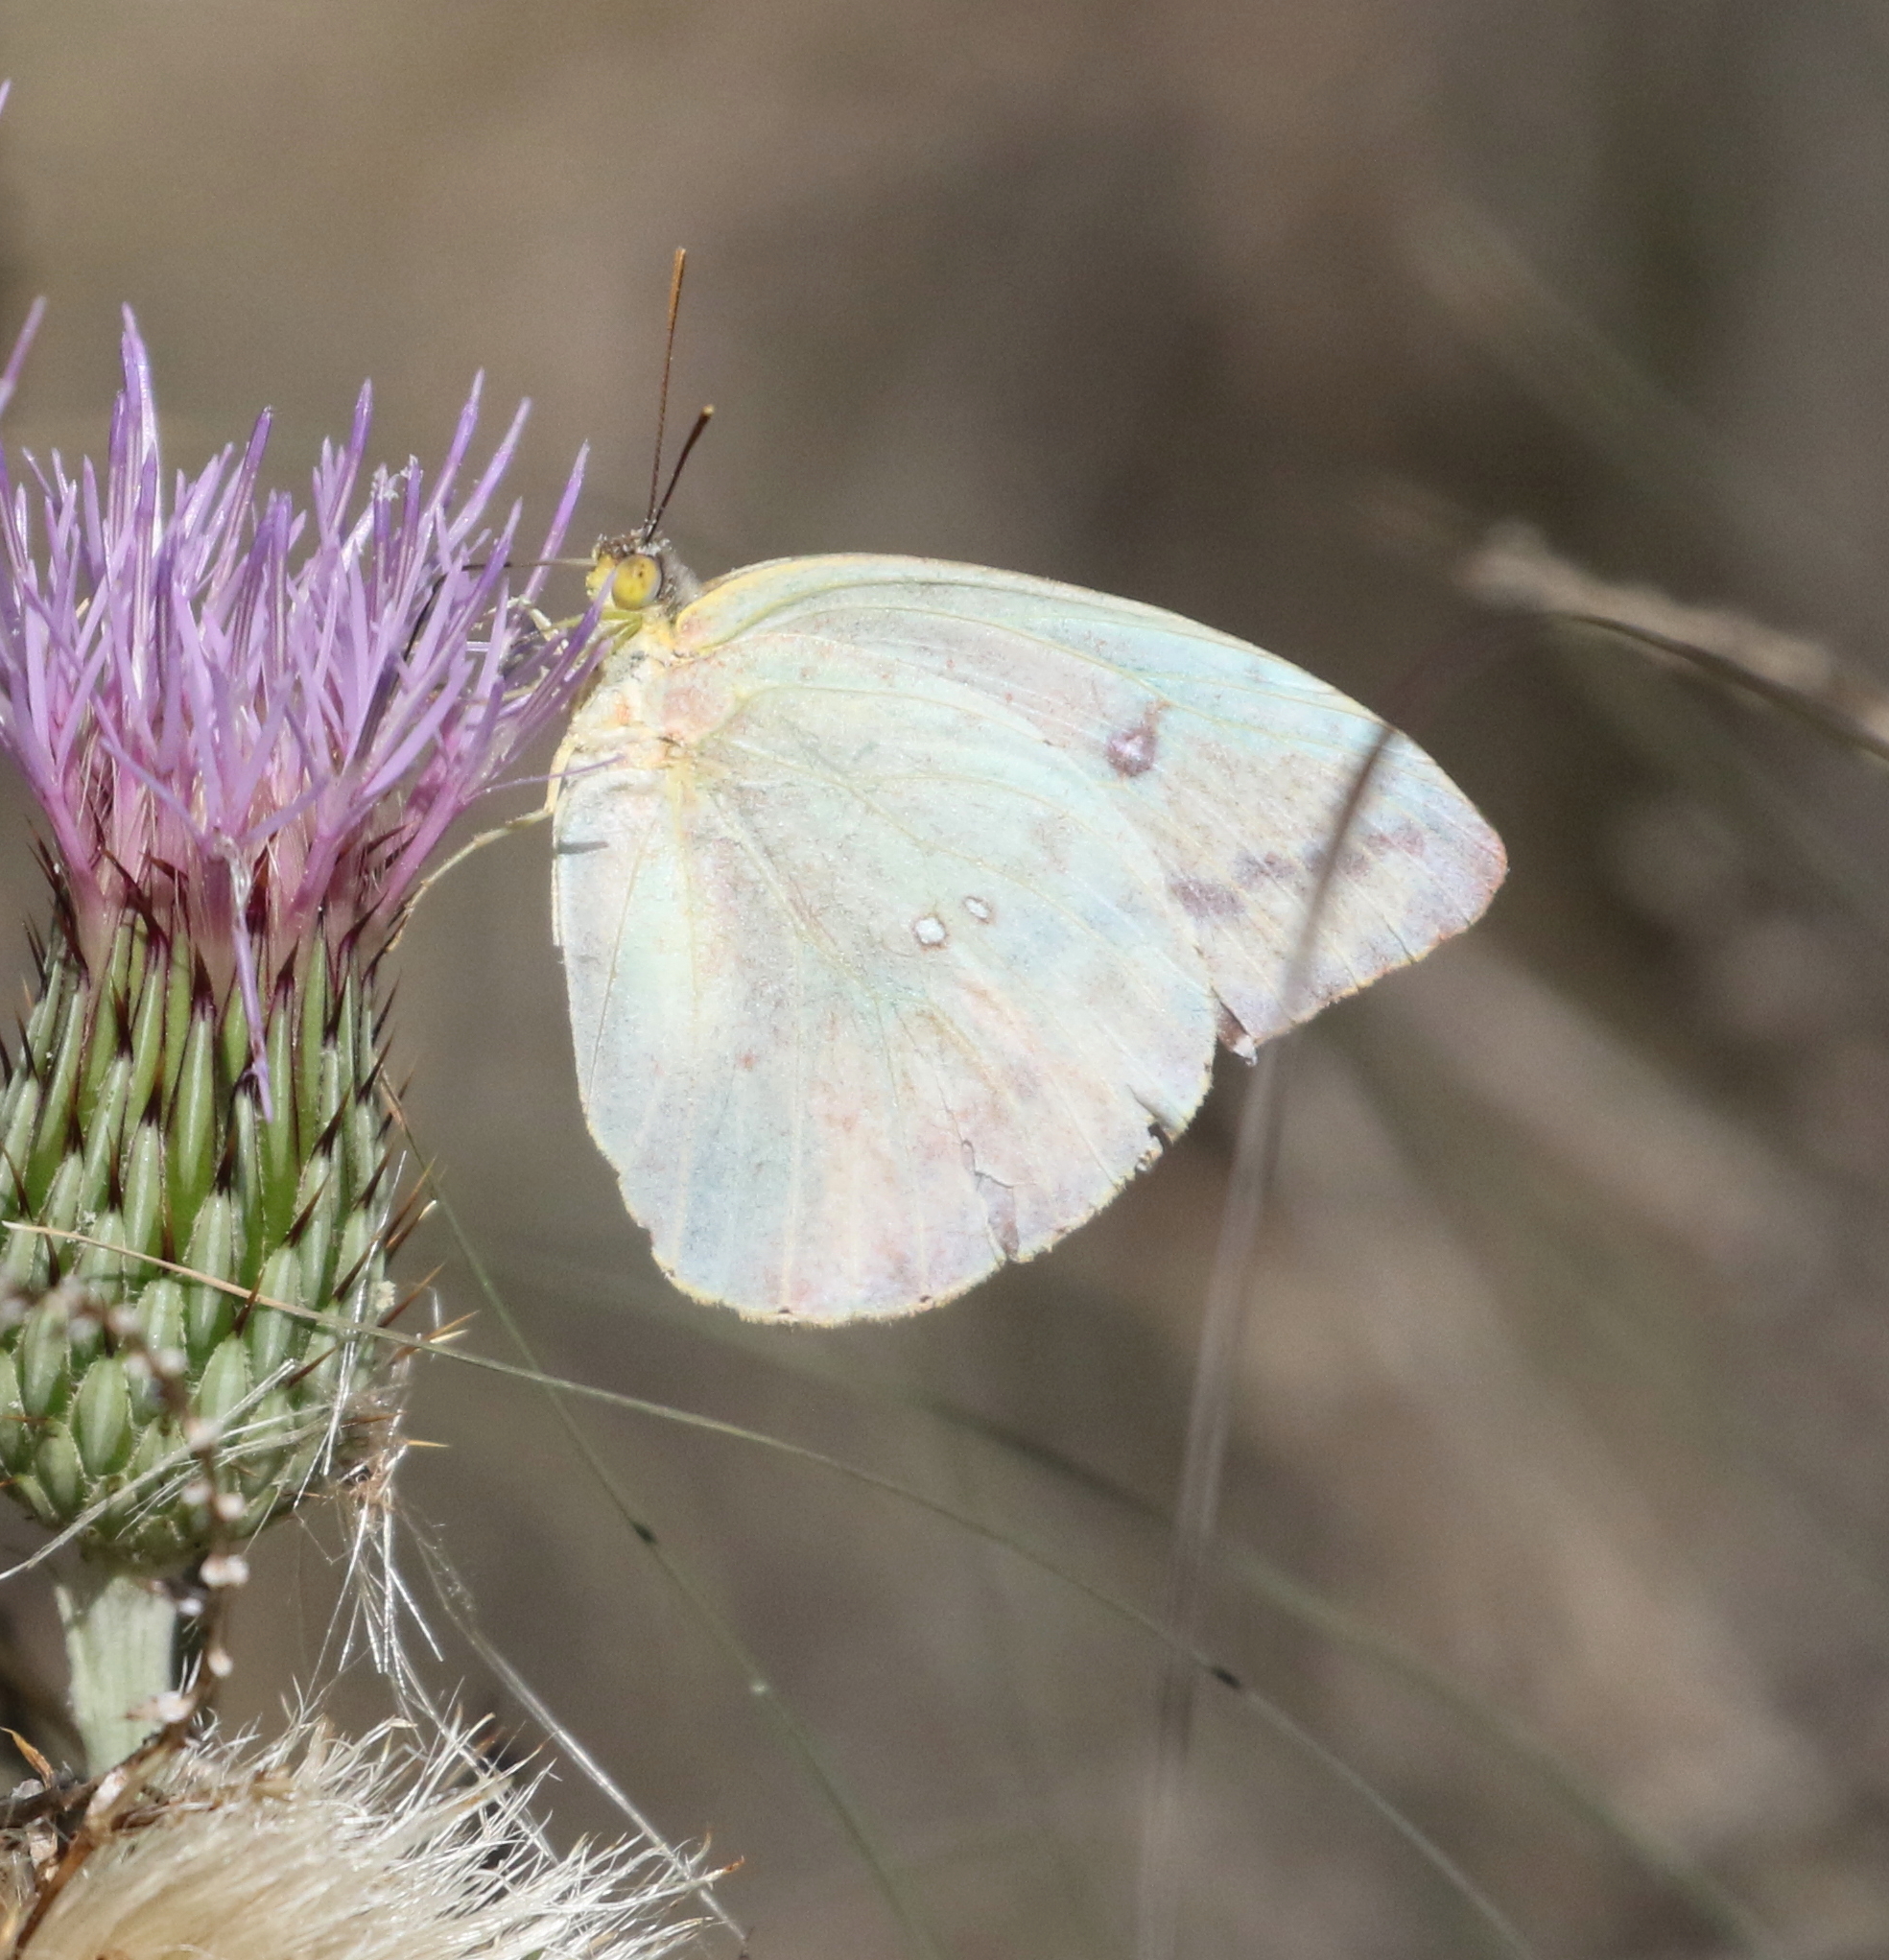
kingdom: Animalia
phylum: Arthropoda
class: Insecta
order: Lepidoptera
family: Pieridae
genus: Phoebis
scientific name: Phoebis agarithe
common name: Large orange sulphur
